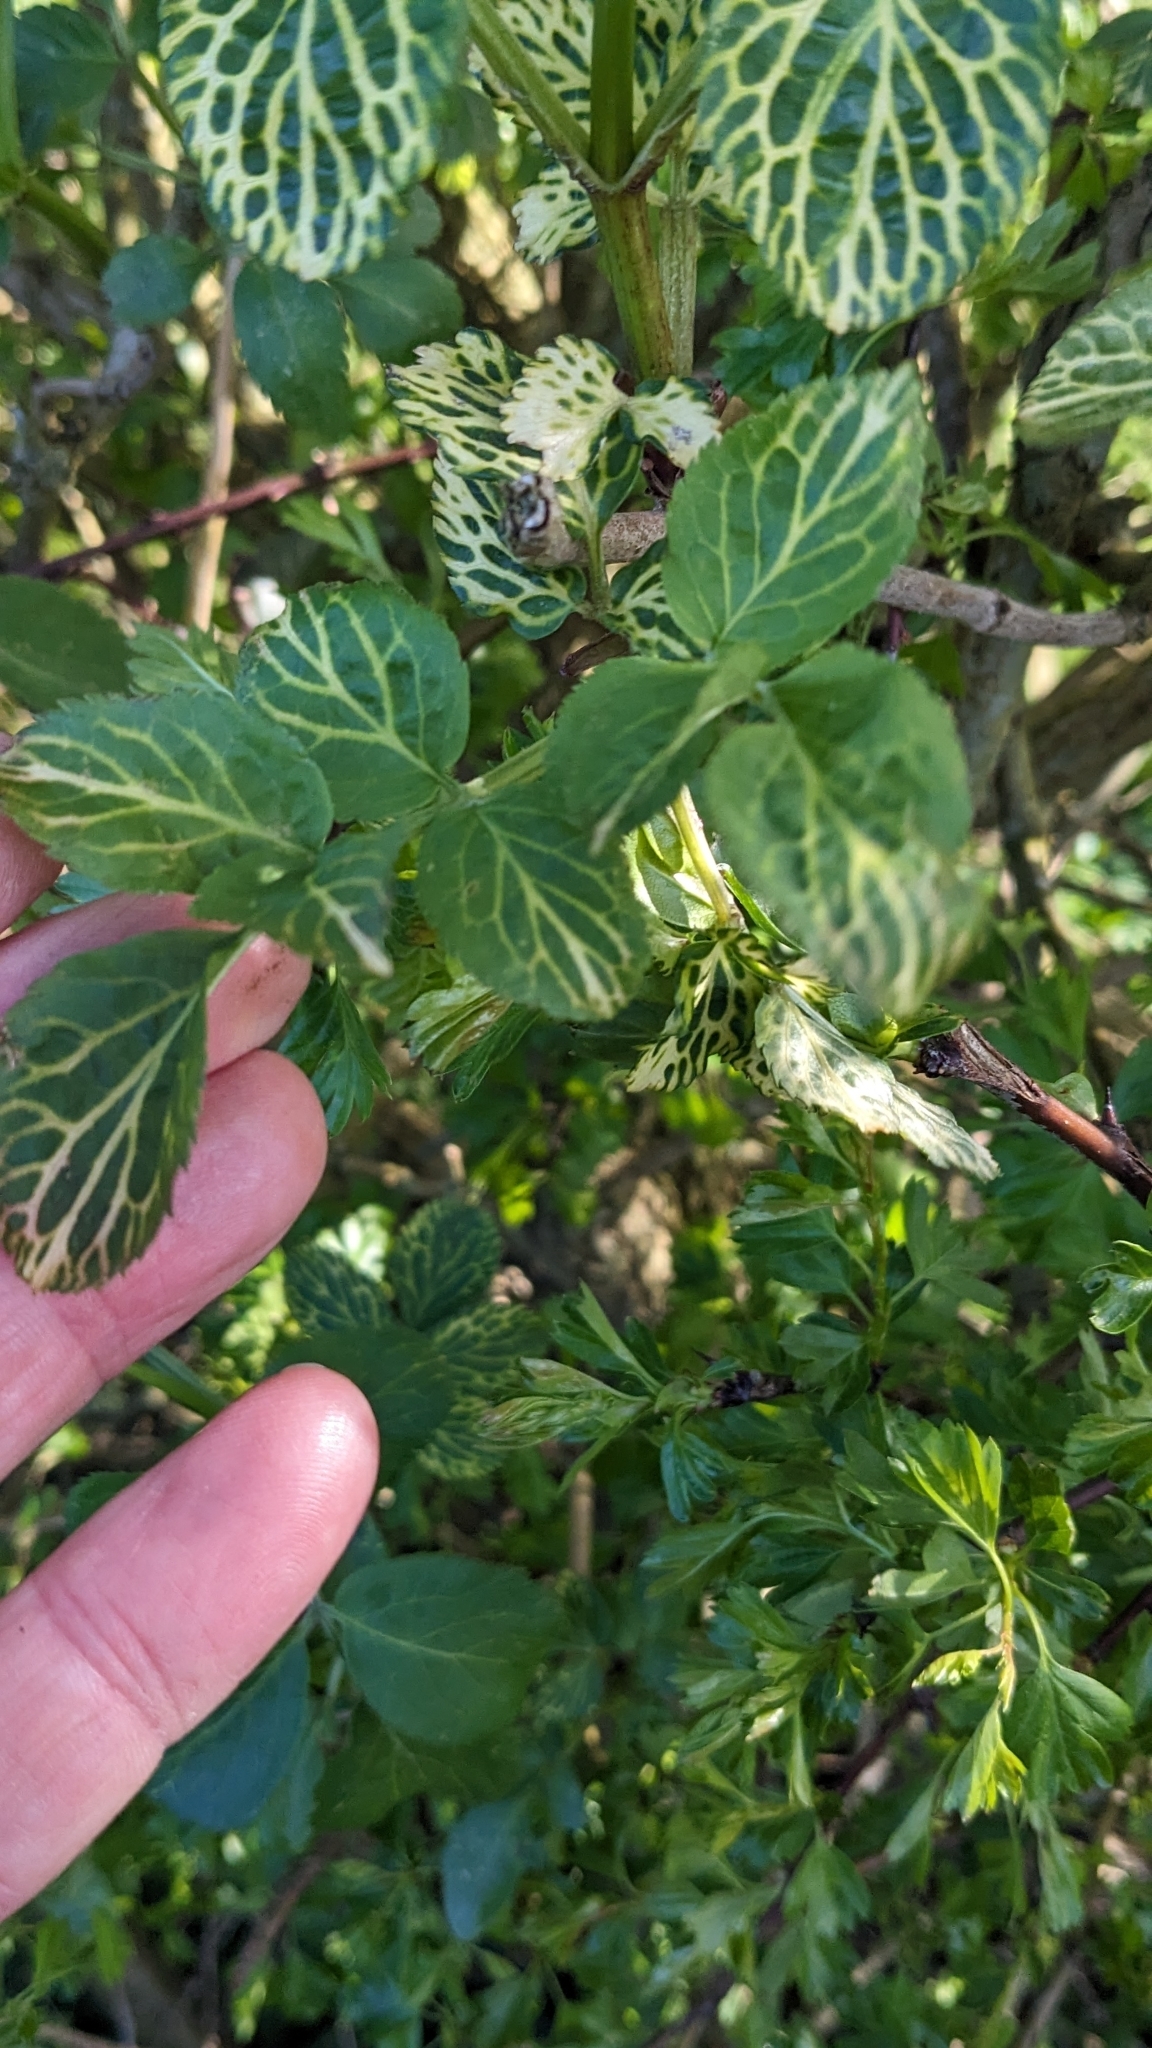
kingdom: Plantae
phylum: Tracheophyta
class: Magnoliopsida
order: Dipsacales
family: Viburnaceae
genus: Sambucus
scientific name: Sambucus nigra
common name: Elder
